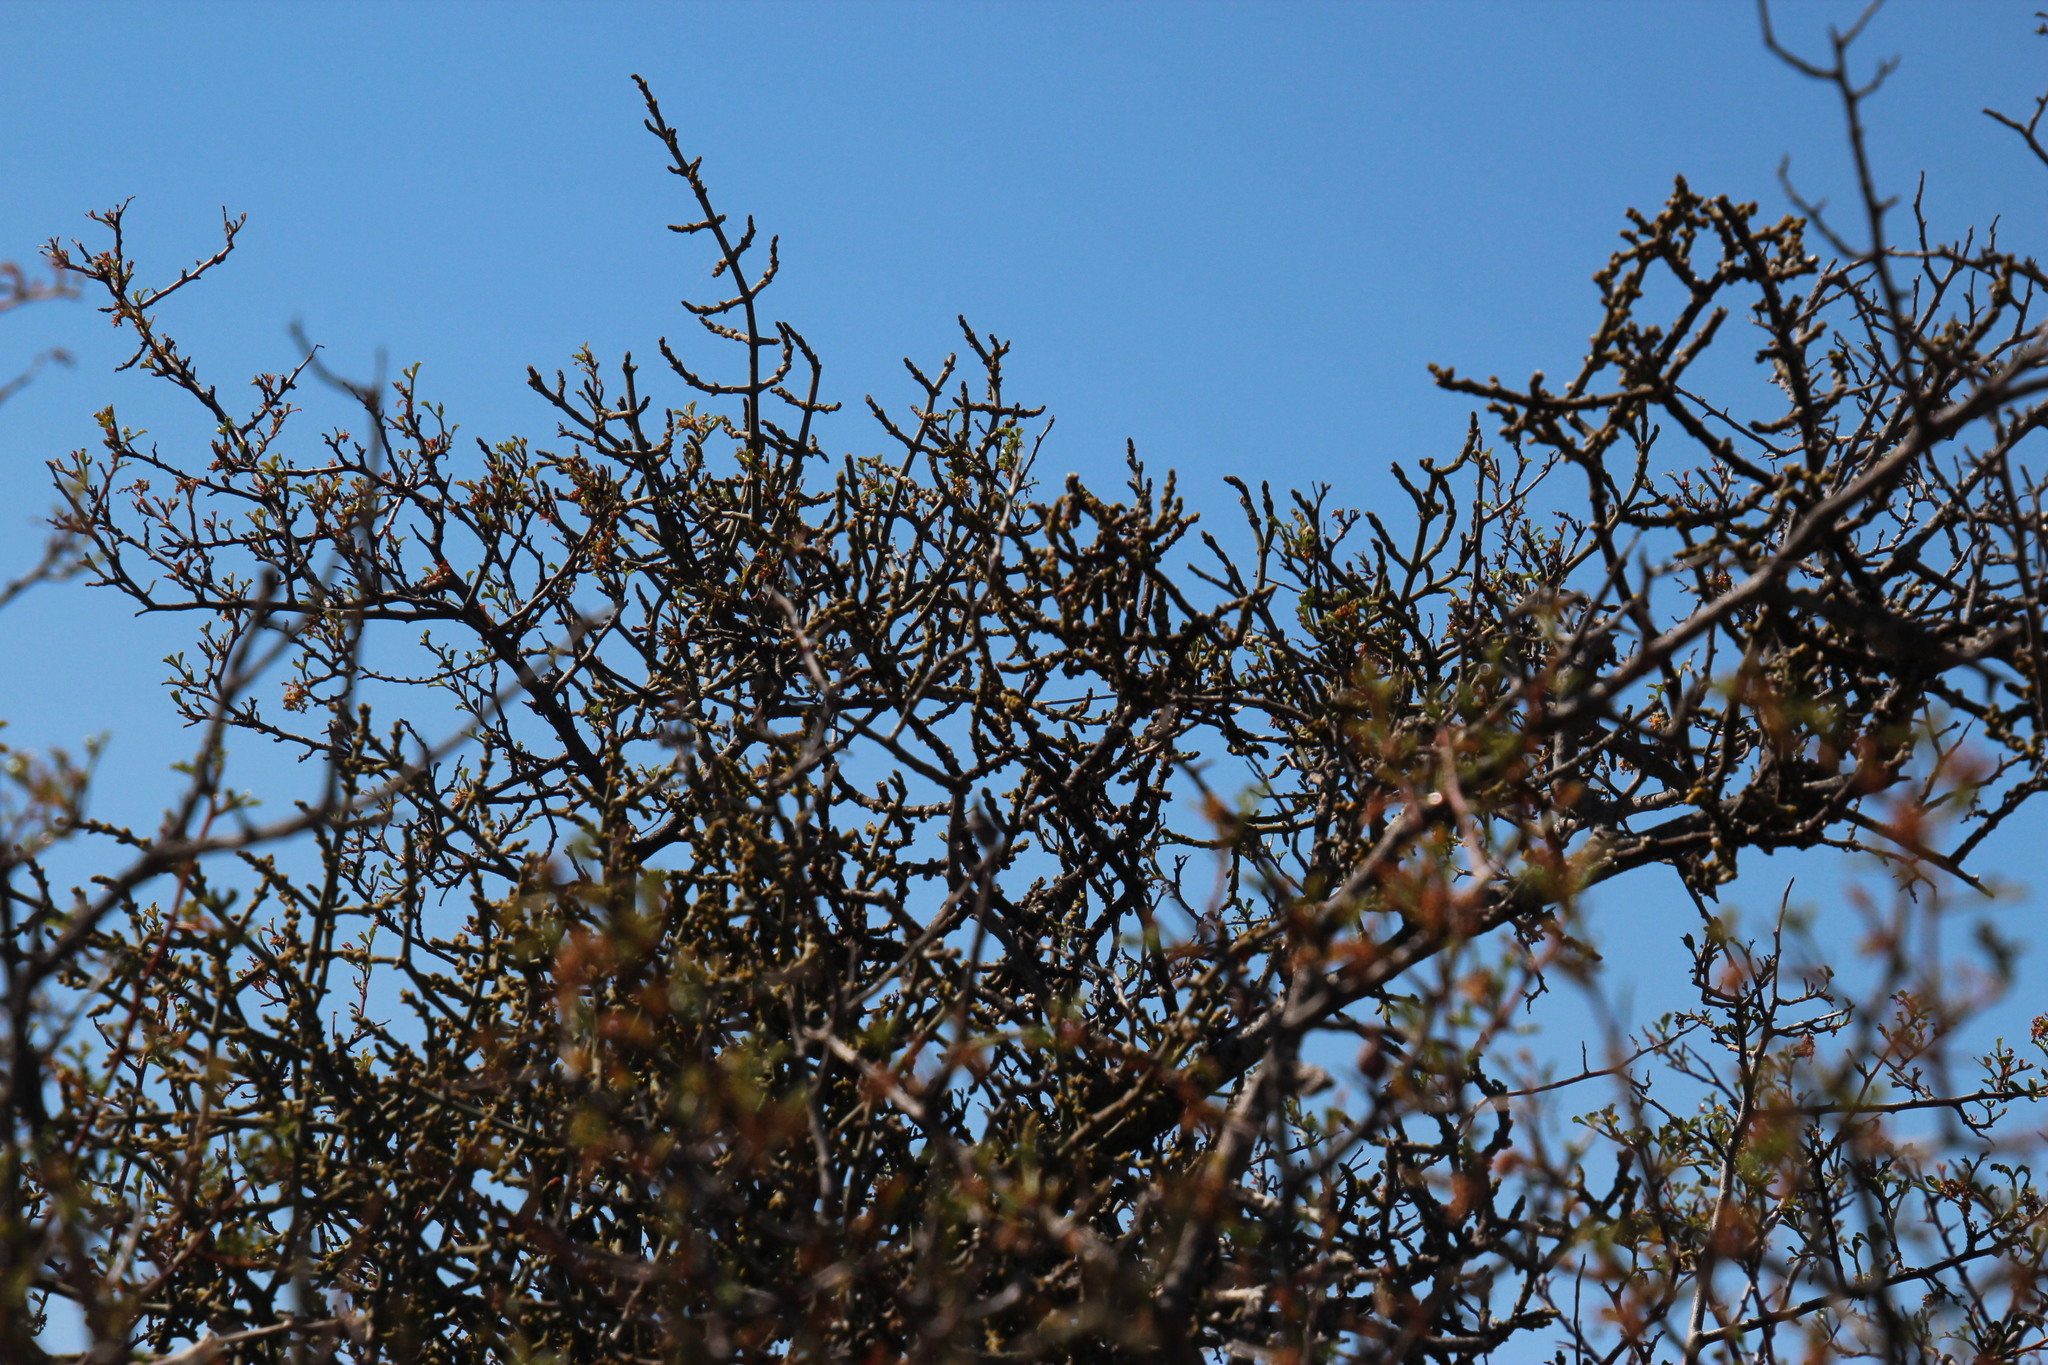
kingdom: Plantae
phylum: Tracheophyta
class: Magnoliopsida
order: Sapindales
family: Anacardiaceae
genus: Searsia
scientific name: Searsia undulata
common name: Namaqua kunibush
